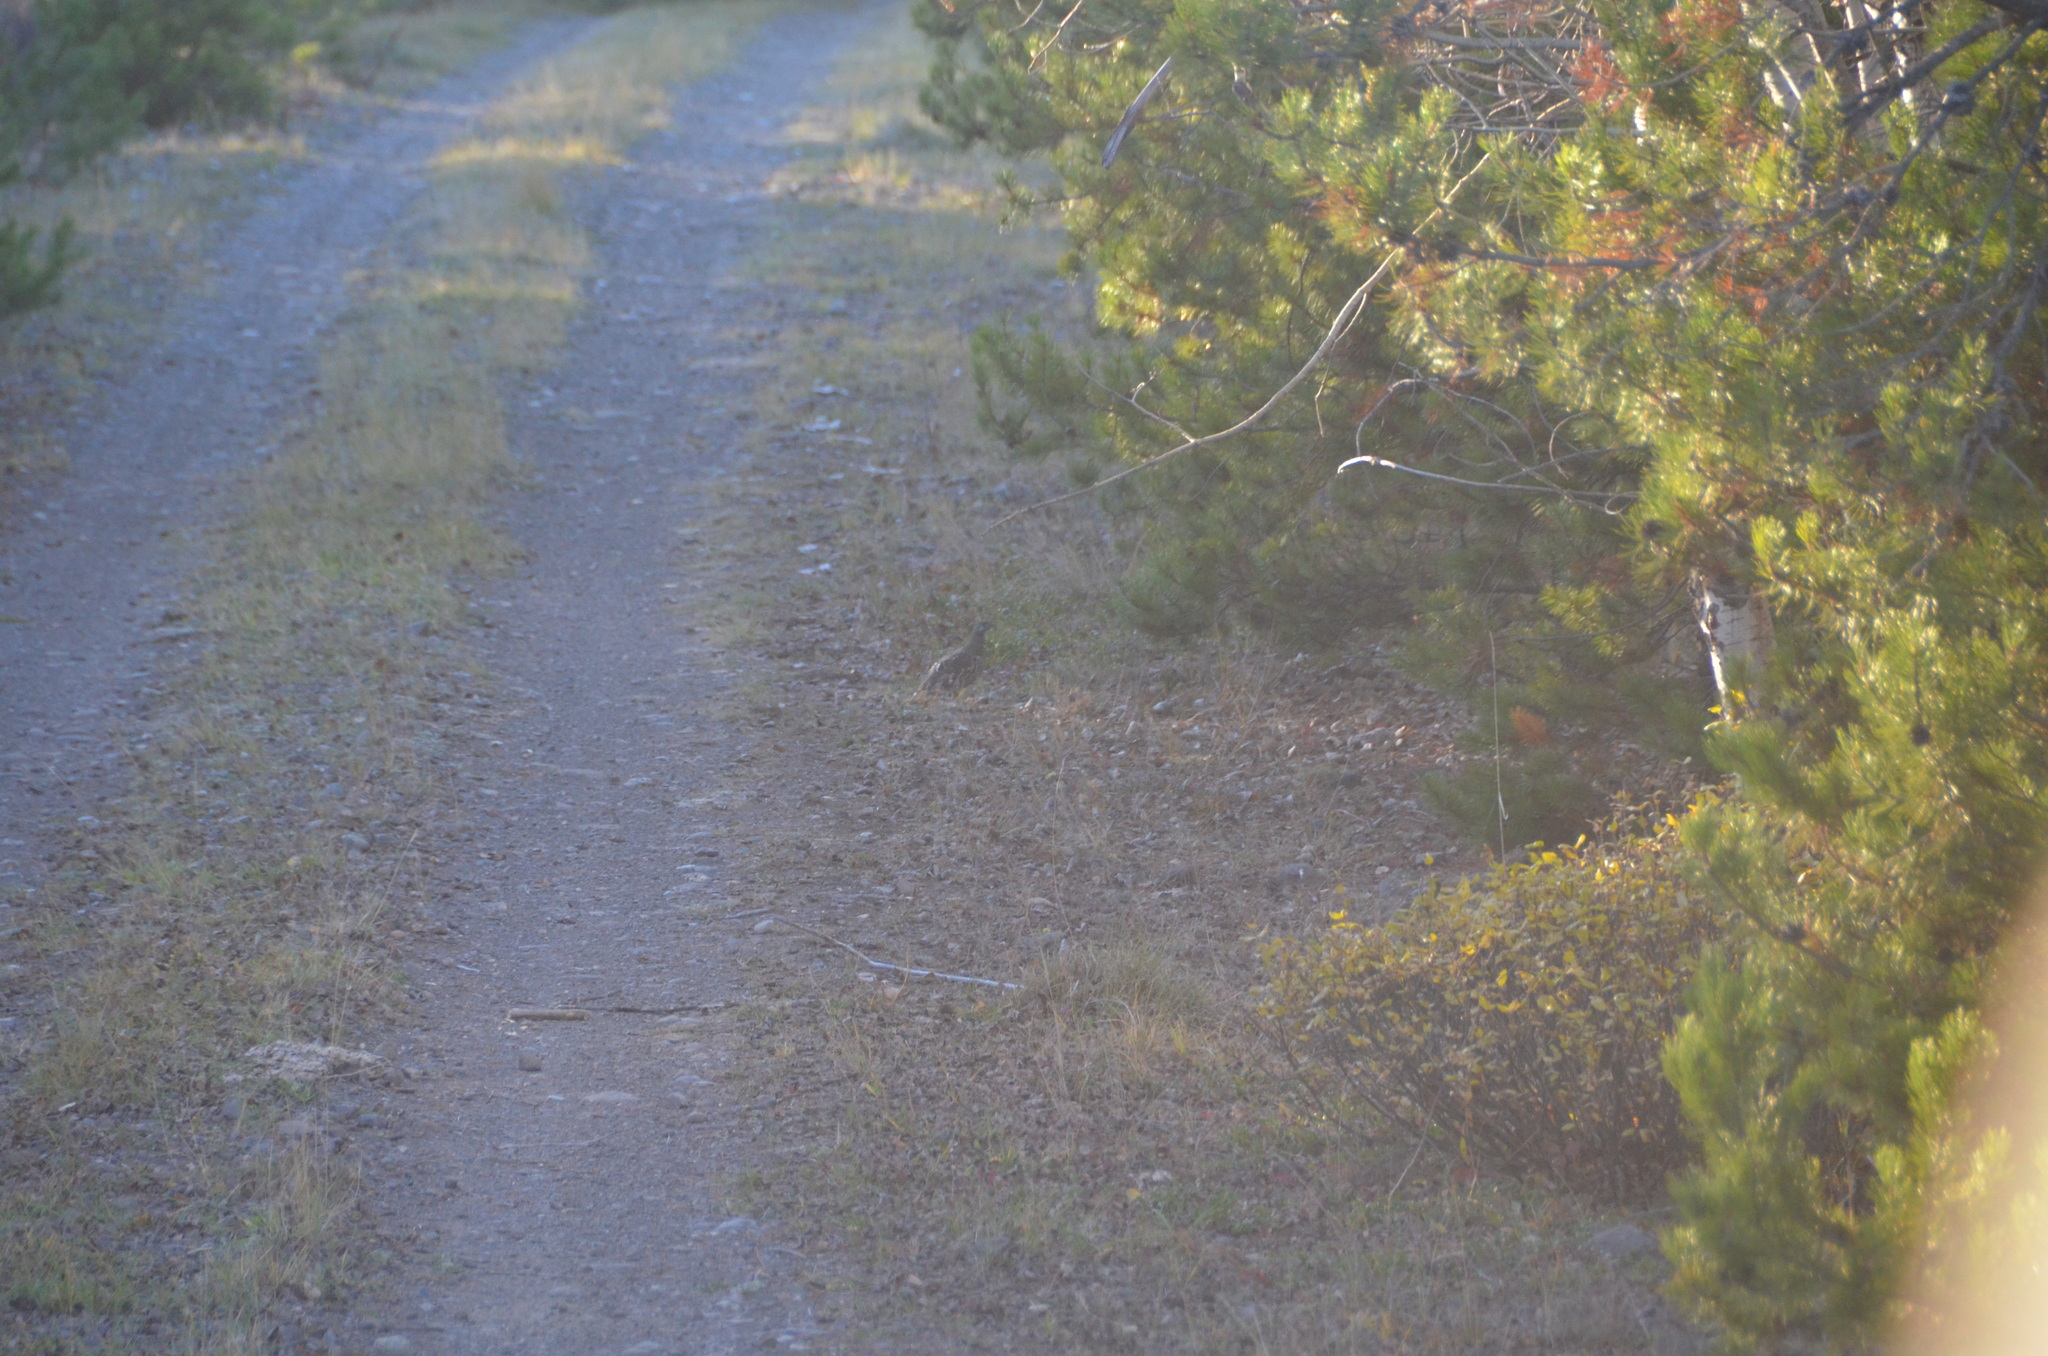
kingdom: Animalia
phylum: Chordata
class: Aves
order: Galliformes
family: Phasianidae
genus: Canachites
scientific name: Canachites canadensis
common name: Spruce grouse
